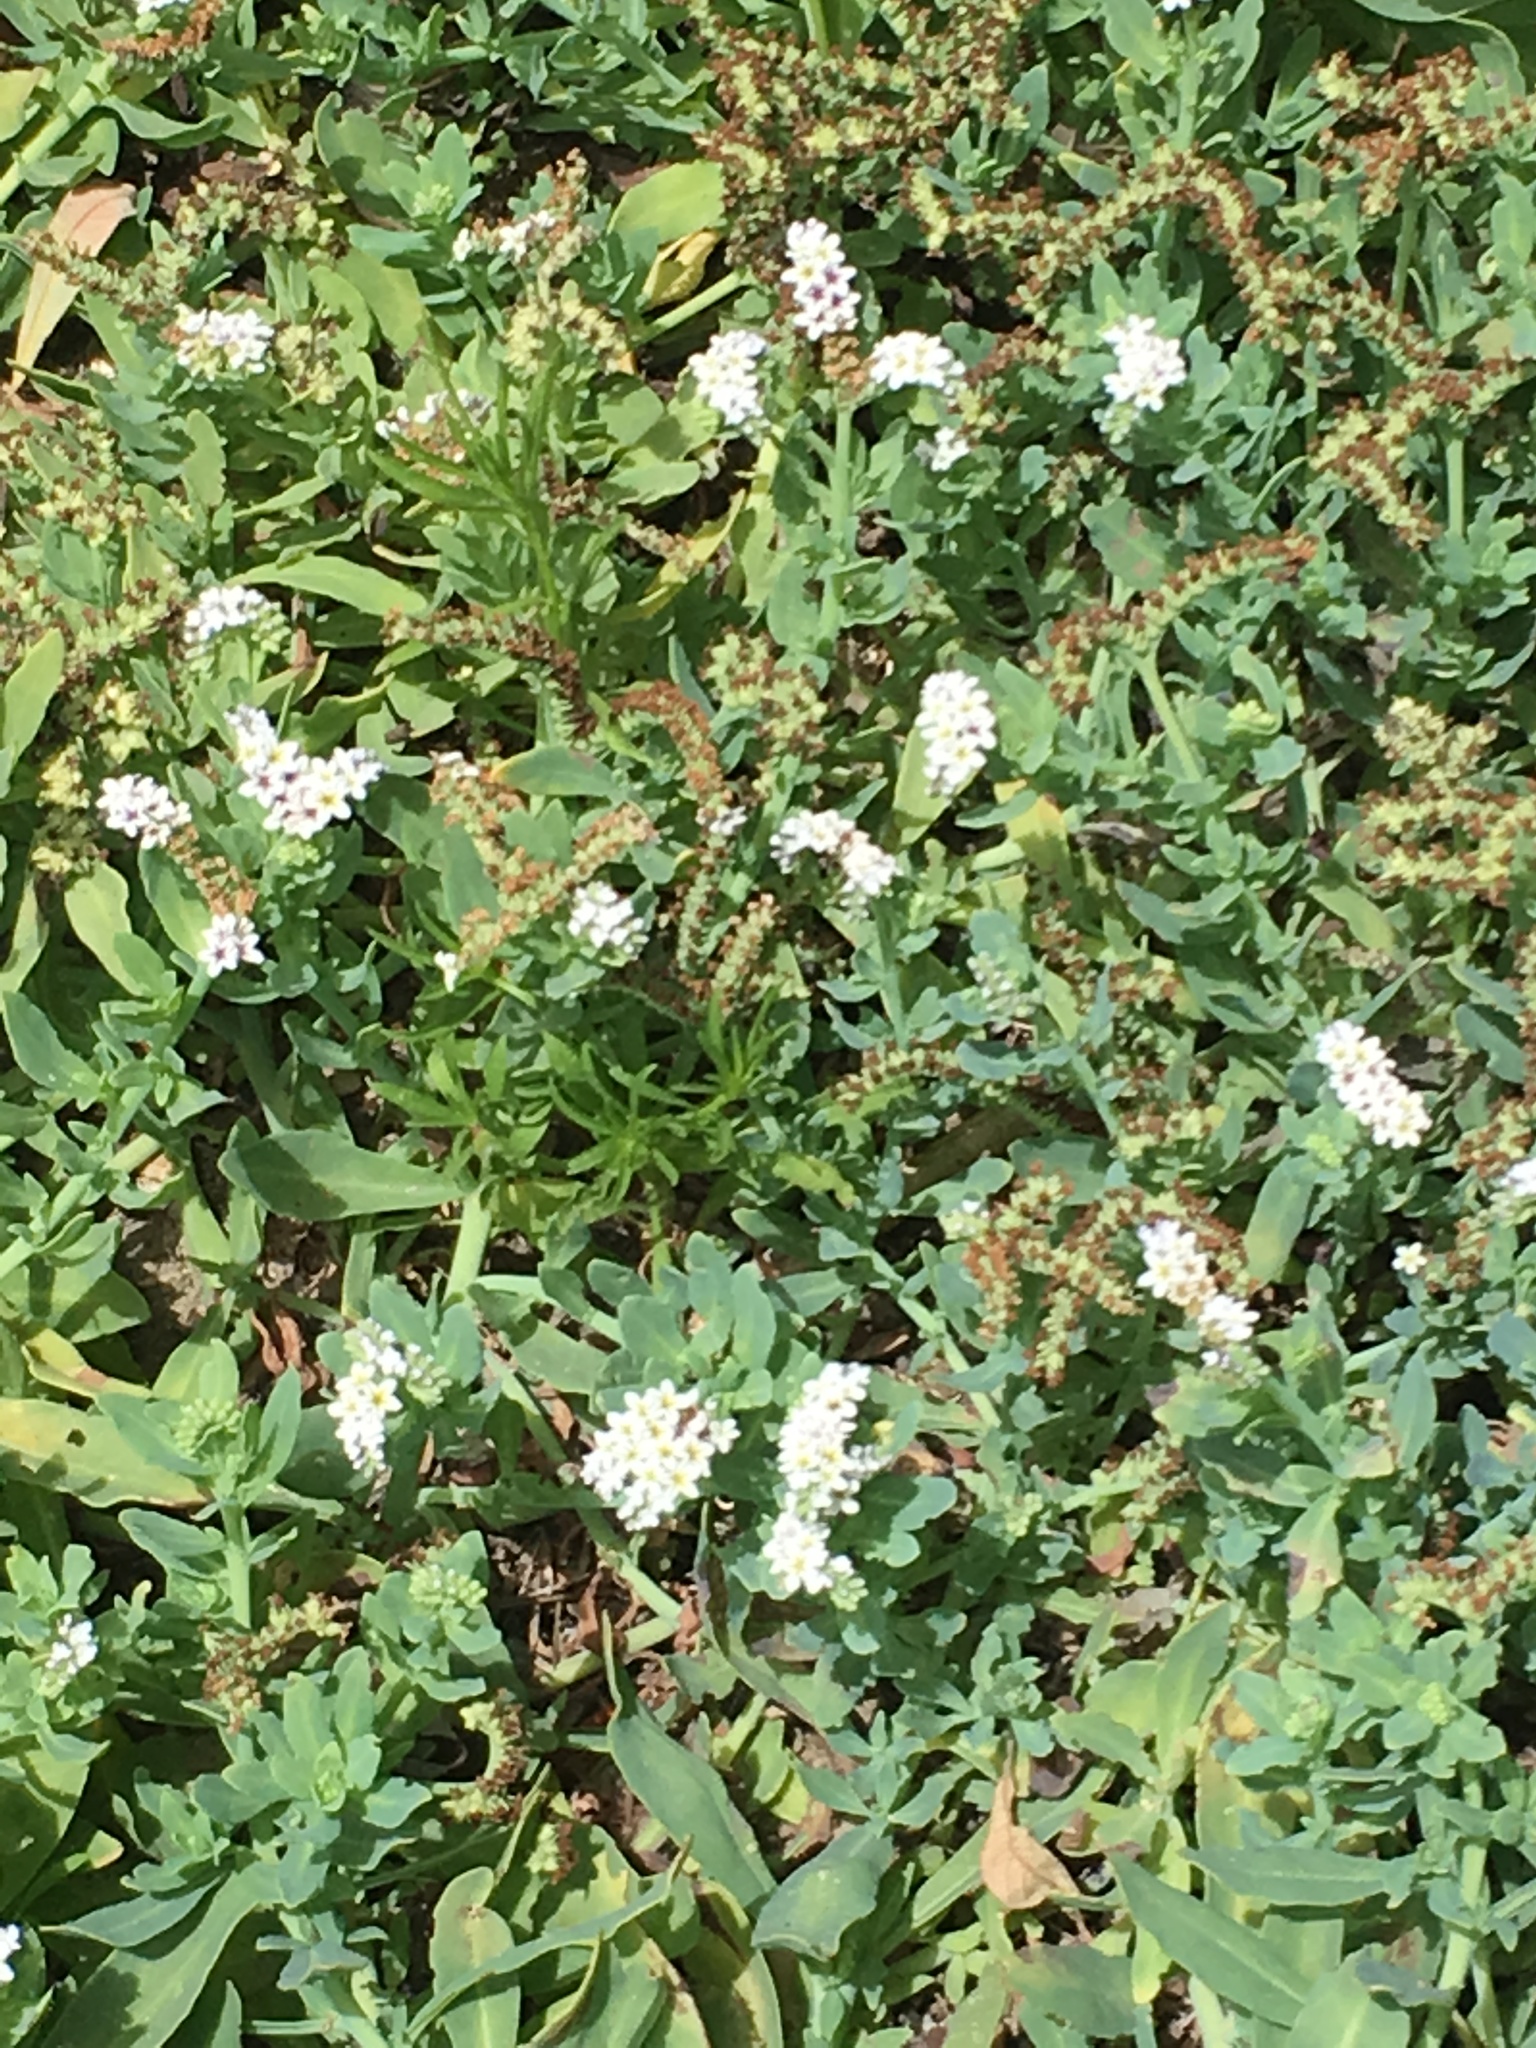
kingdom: Plantae
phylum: Tracheophyta
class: Magnoliopsida
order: Boraginales
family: Heliotropiaceae
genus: Heliotropium
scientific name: Heliotropium curassavicum
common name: Seaside heliotrope
